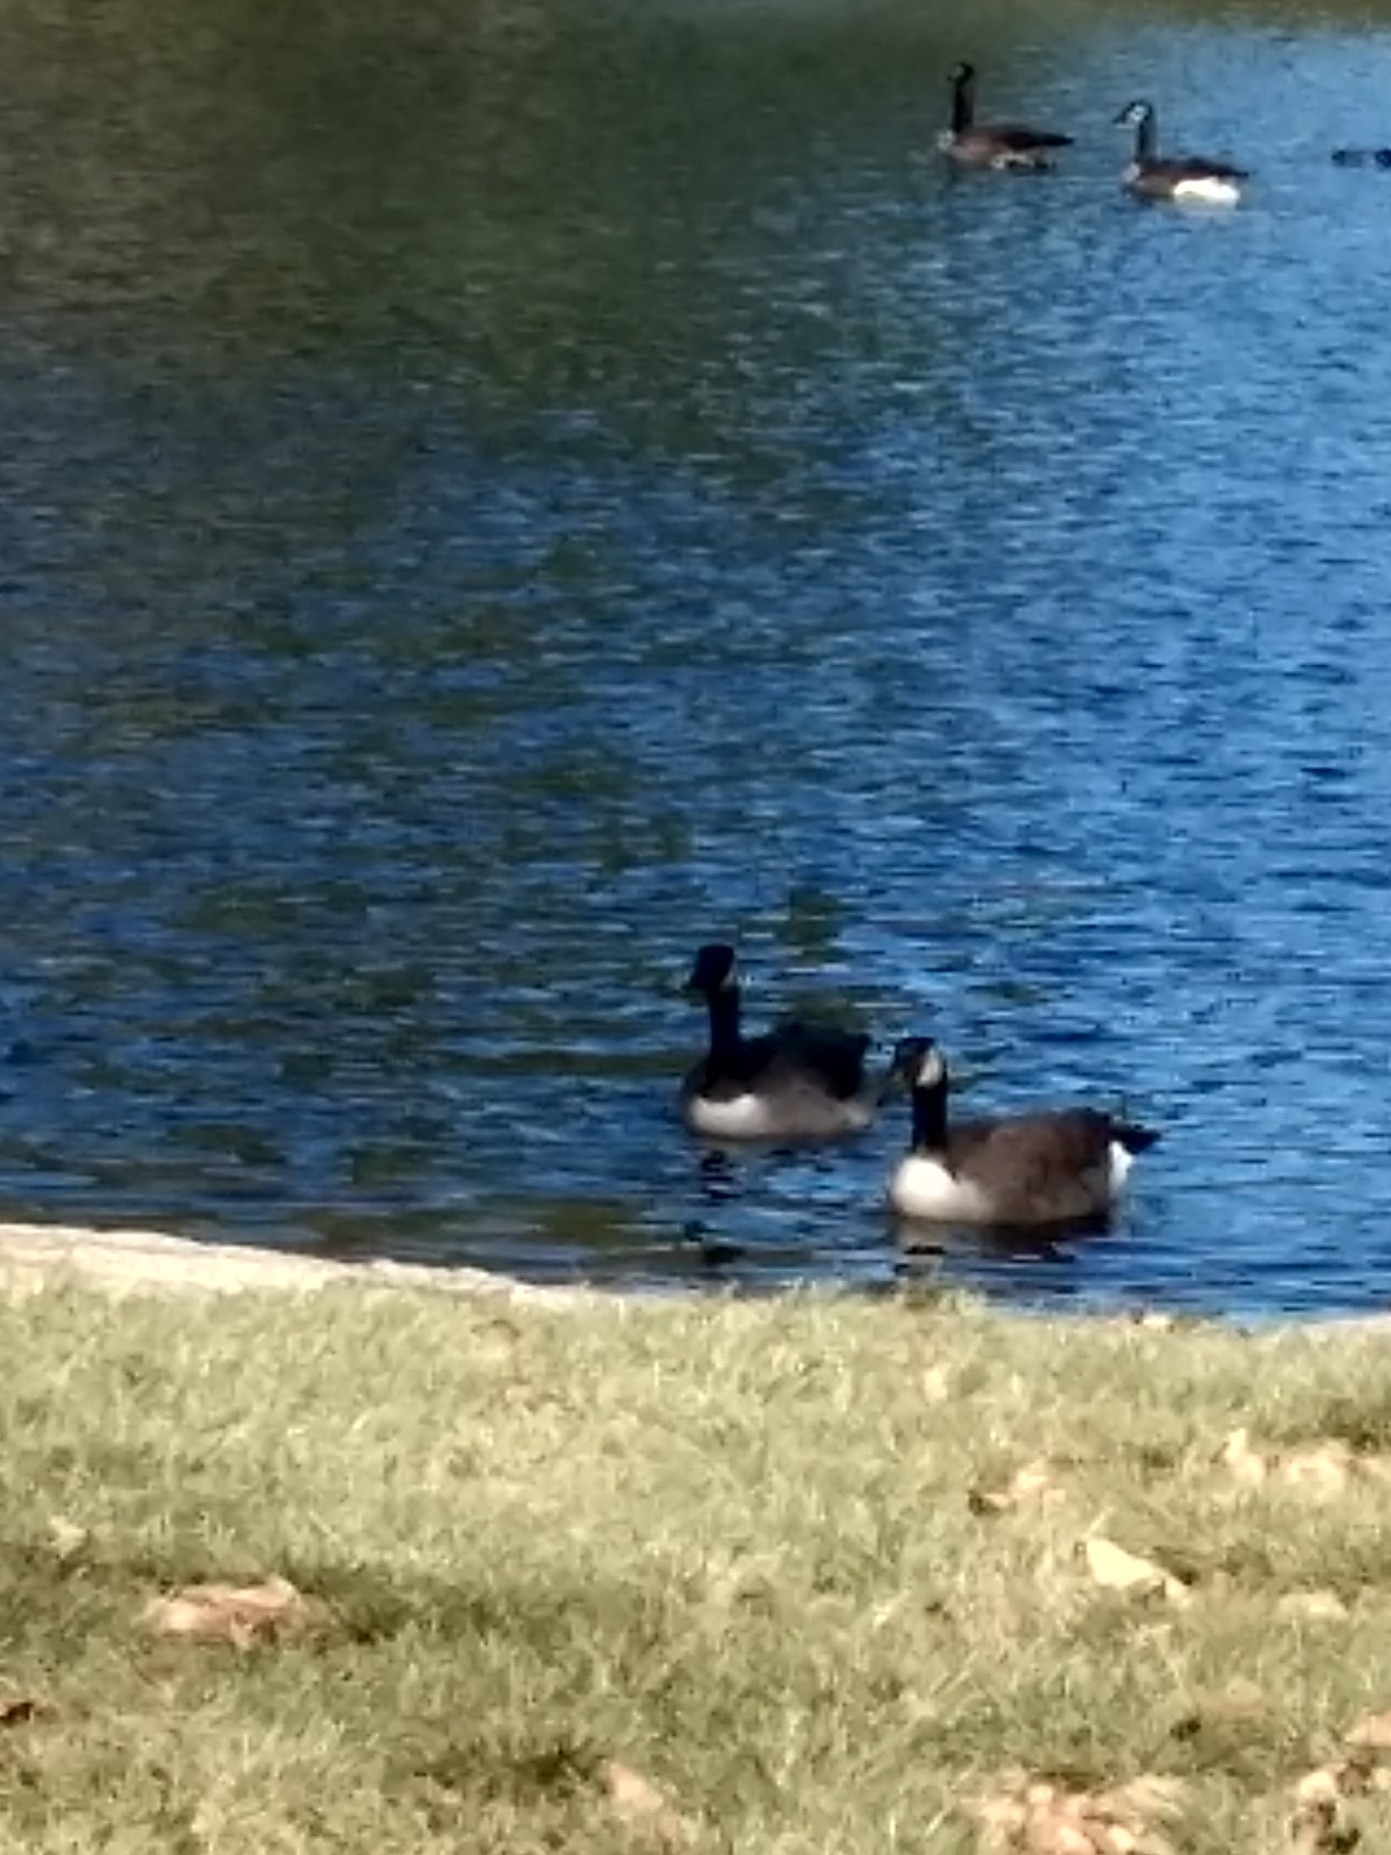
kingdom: Animalia
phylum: Chordata
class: Aves
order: Anseriformes
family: Anatidae
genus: Branta
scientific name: Branta canadensis
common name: Canada goose
